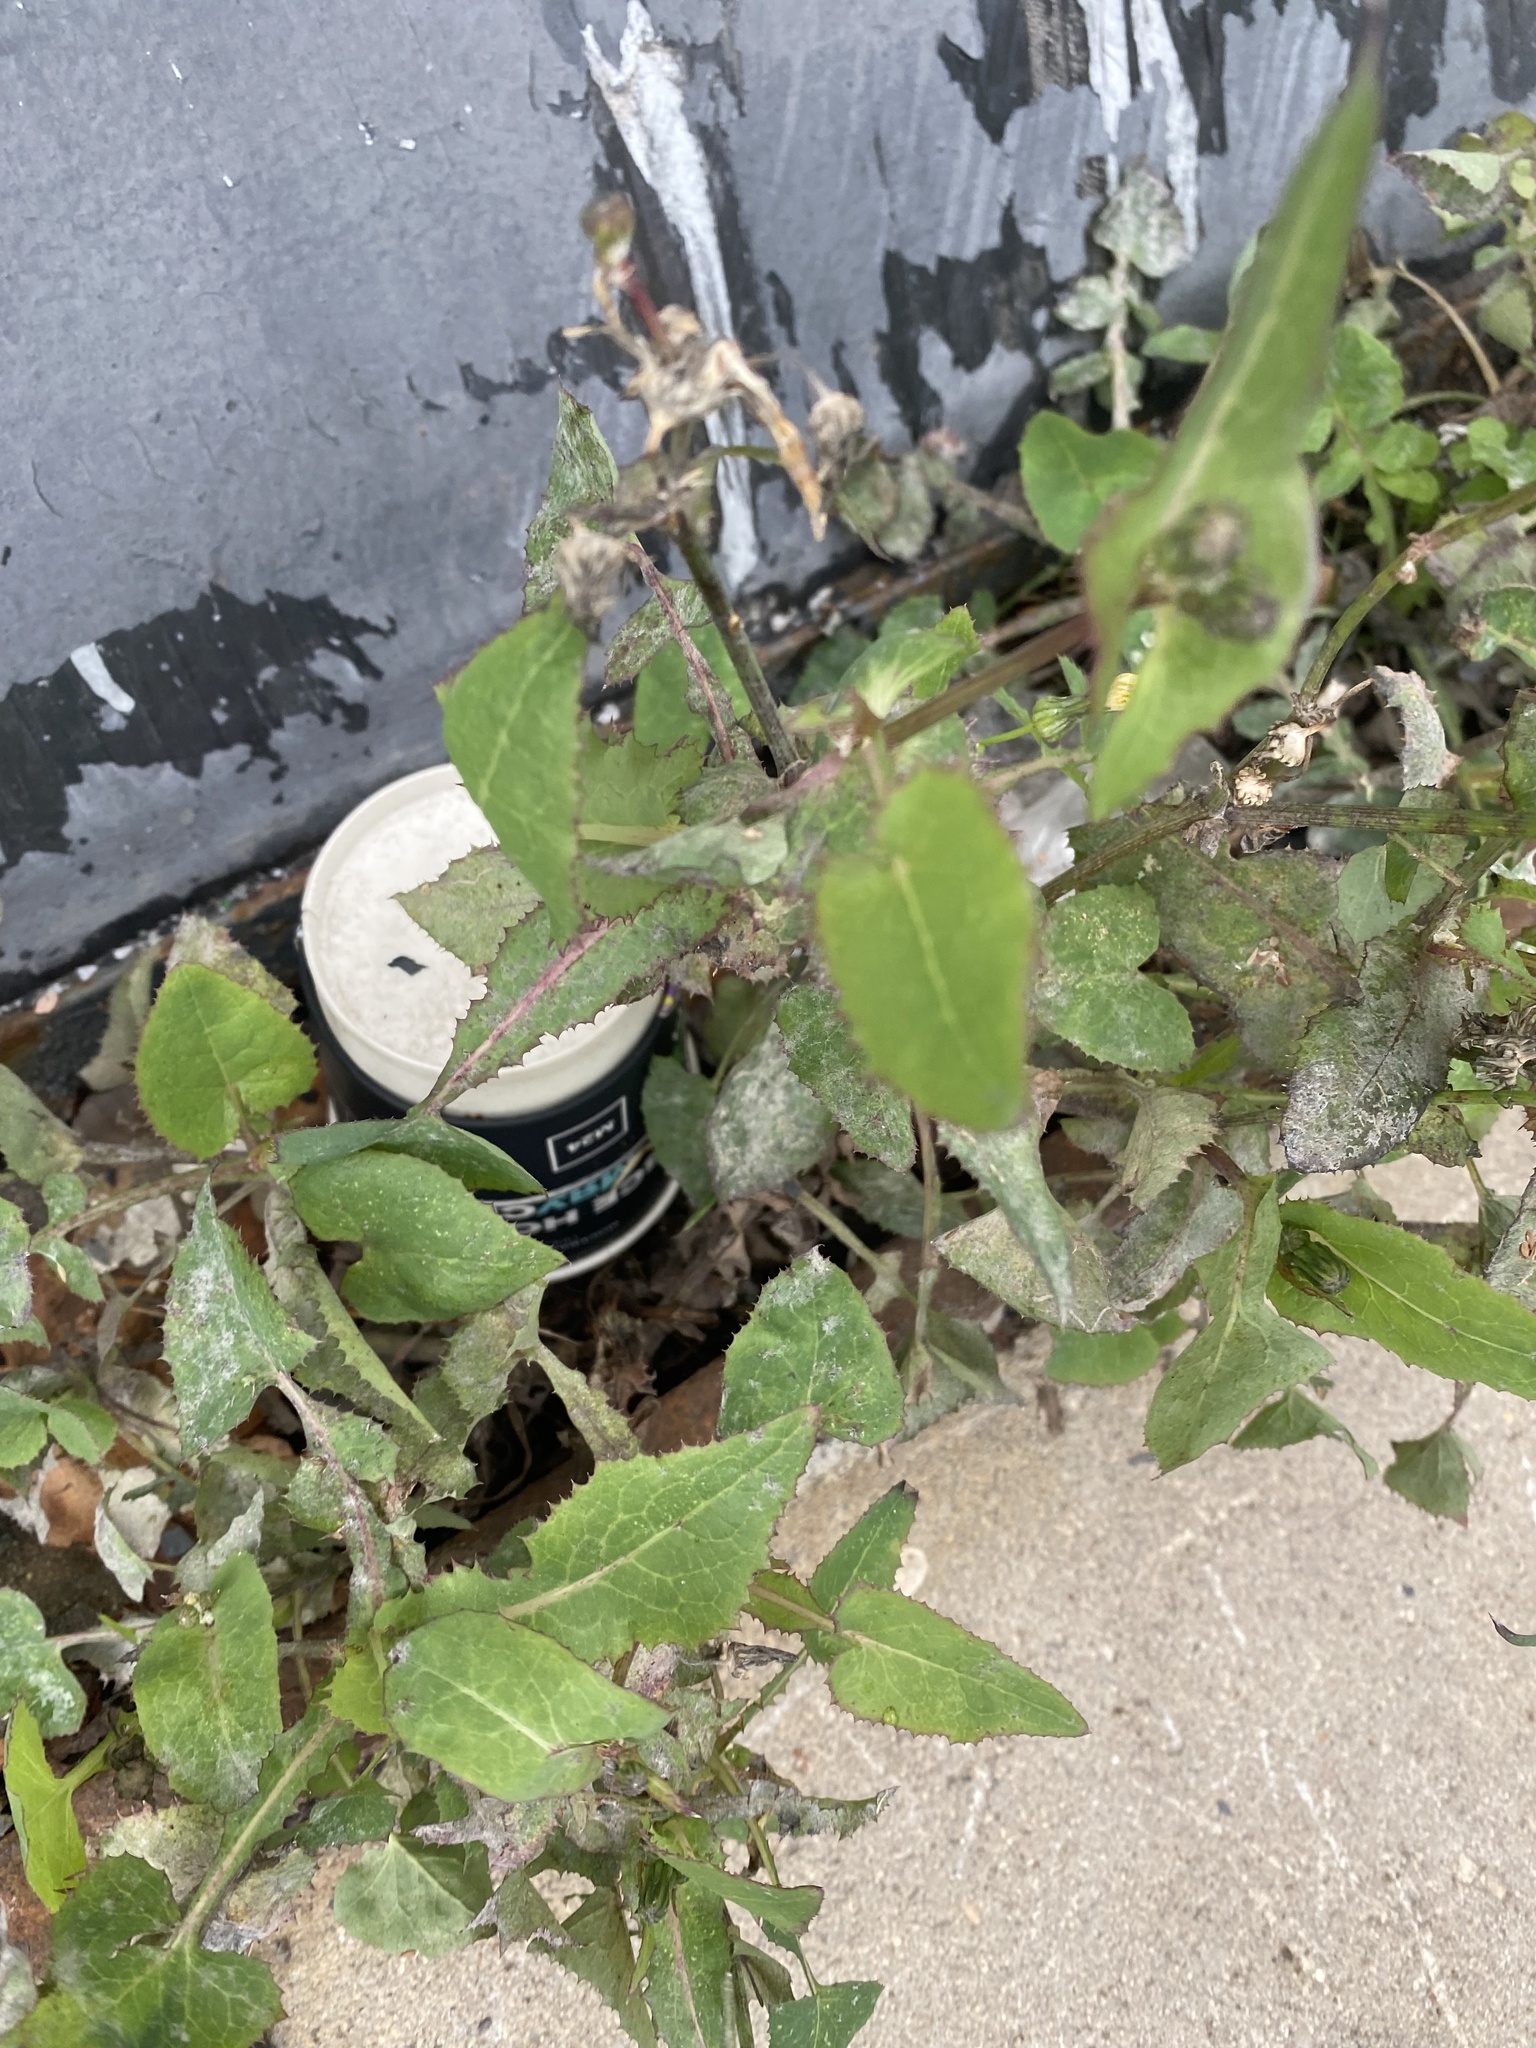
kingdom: Plantae
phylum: Tracheophyta
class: Magnoliopsida
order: Asterales
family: Asteraceae
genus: Sonchus
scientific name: Sonchus oleraceus
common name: Common sowthistle
